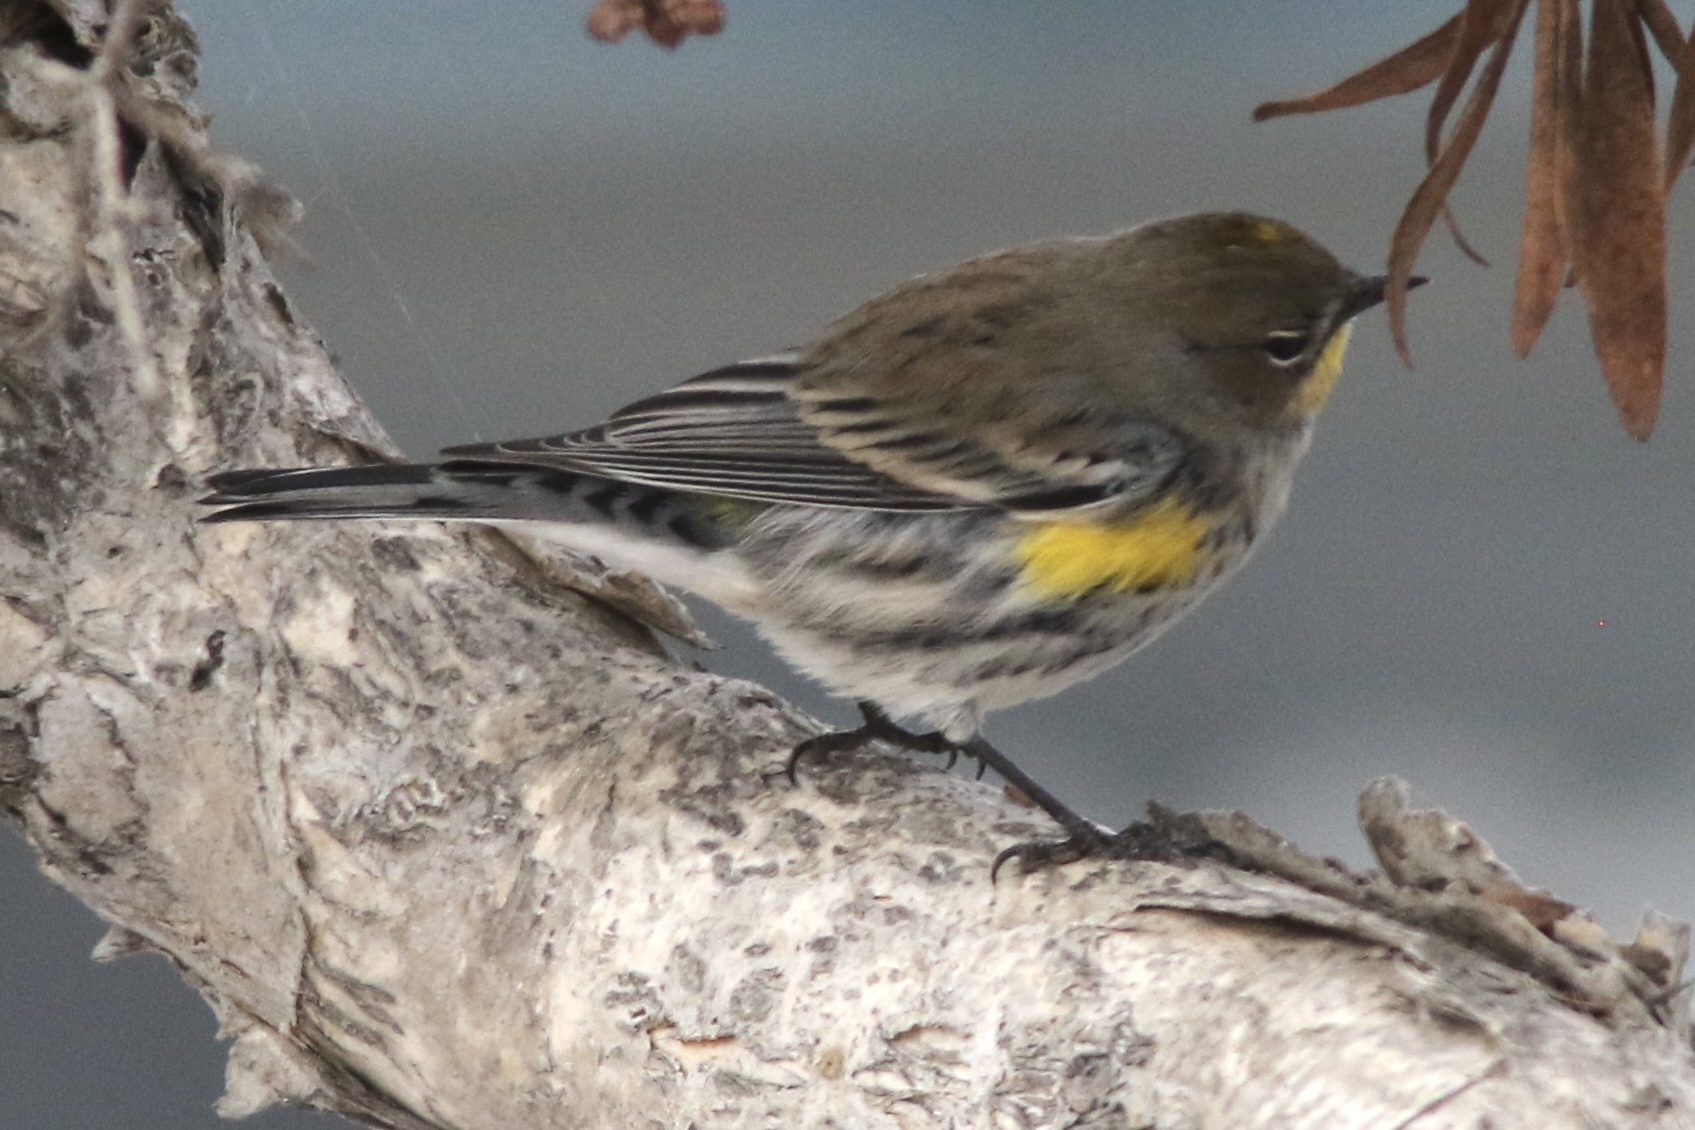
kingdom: Animalia
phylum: Chordata
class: Aves
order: Passeriformes
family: Parulidae
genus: Setophaga
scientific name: Setophaga coronata
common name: Myrtle warbler
